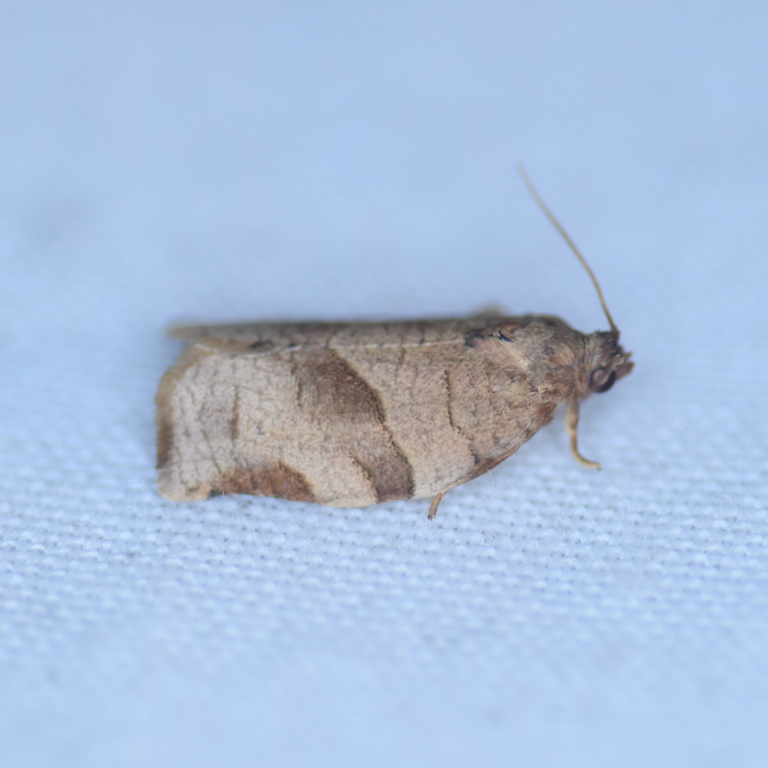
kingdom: Animalia
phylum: Arthropoda
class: Insecta
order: Lepidoptera
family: Tortricidae
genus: Choristoneura
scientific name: Choristoneura rosaceana
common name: Oblique-banded leafroller moth
